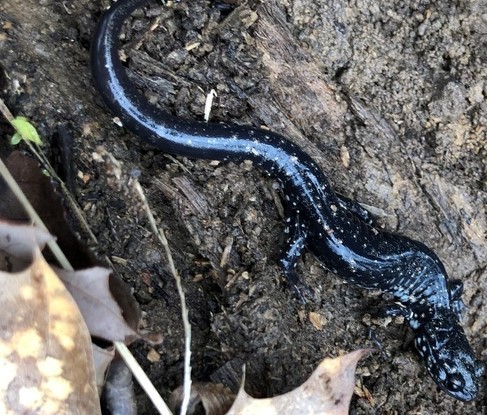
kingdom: Animalia
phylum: Chordata
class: Amphibia
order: Caudata
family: Plethodontidae
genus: Plethodon
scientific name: Plethodon glutinosus
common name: Northern slimy salamander
